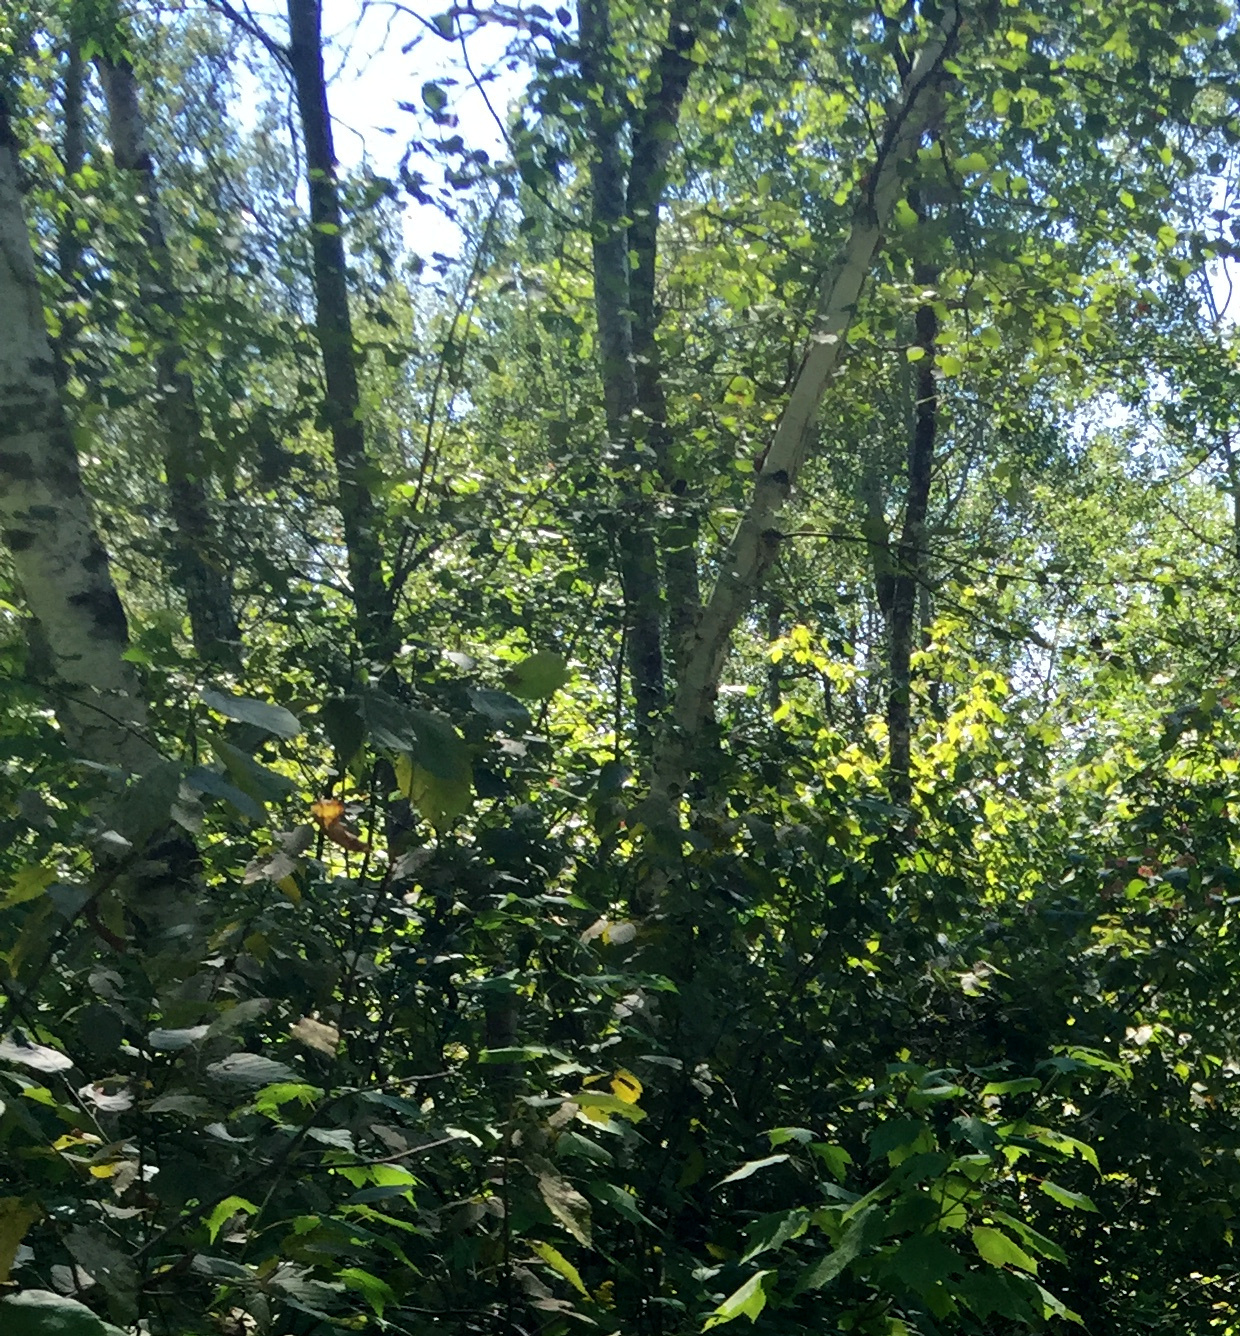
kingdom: Plantae
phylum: Tracheophyta
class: Magnoliopsida
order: Fagales
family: Betulaceae
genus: Betula
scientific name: Betula papyrifera
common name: Paper birch
